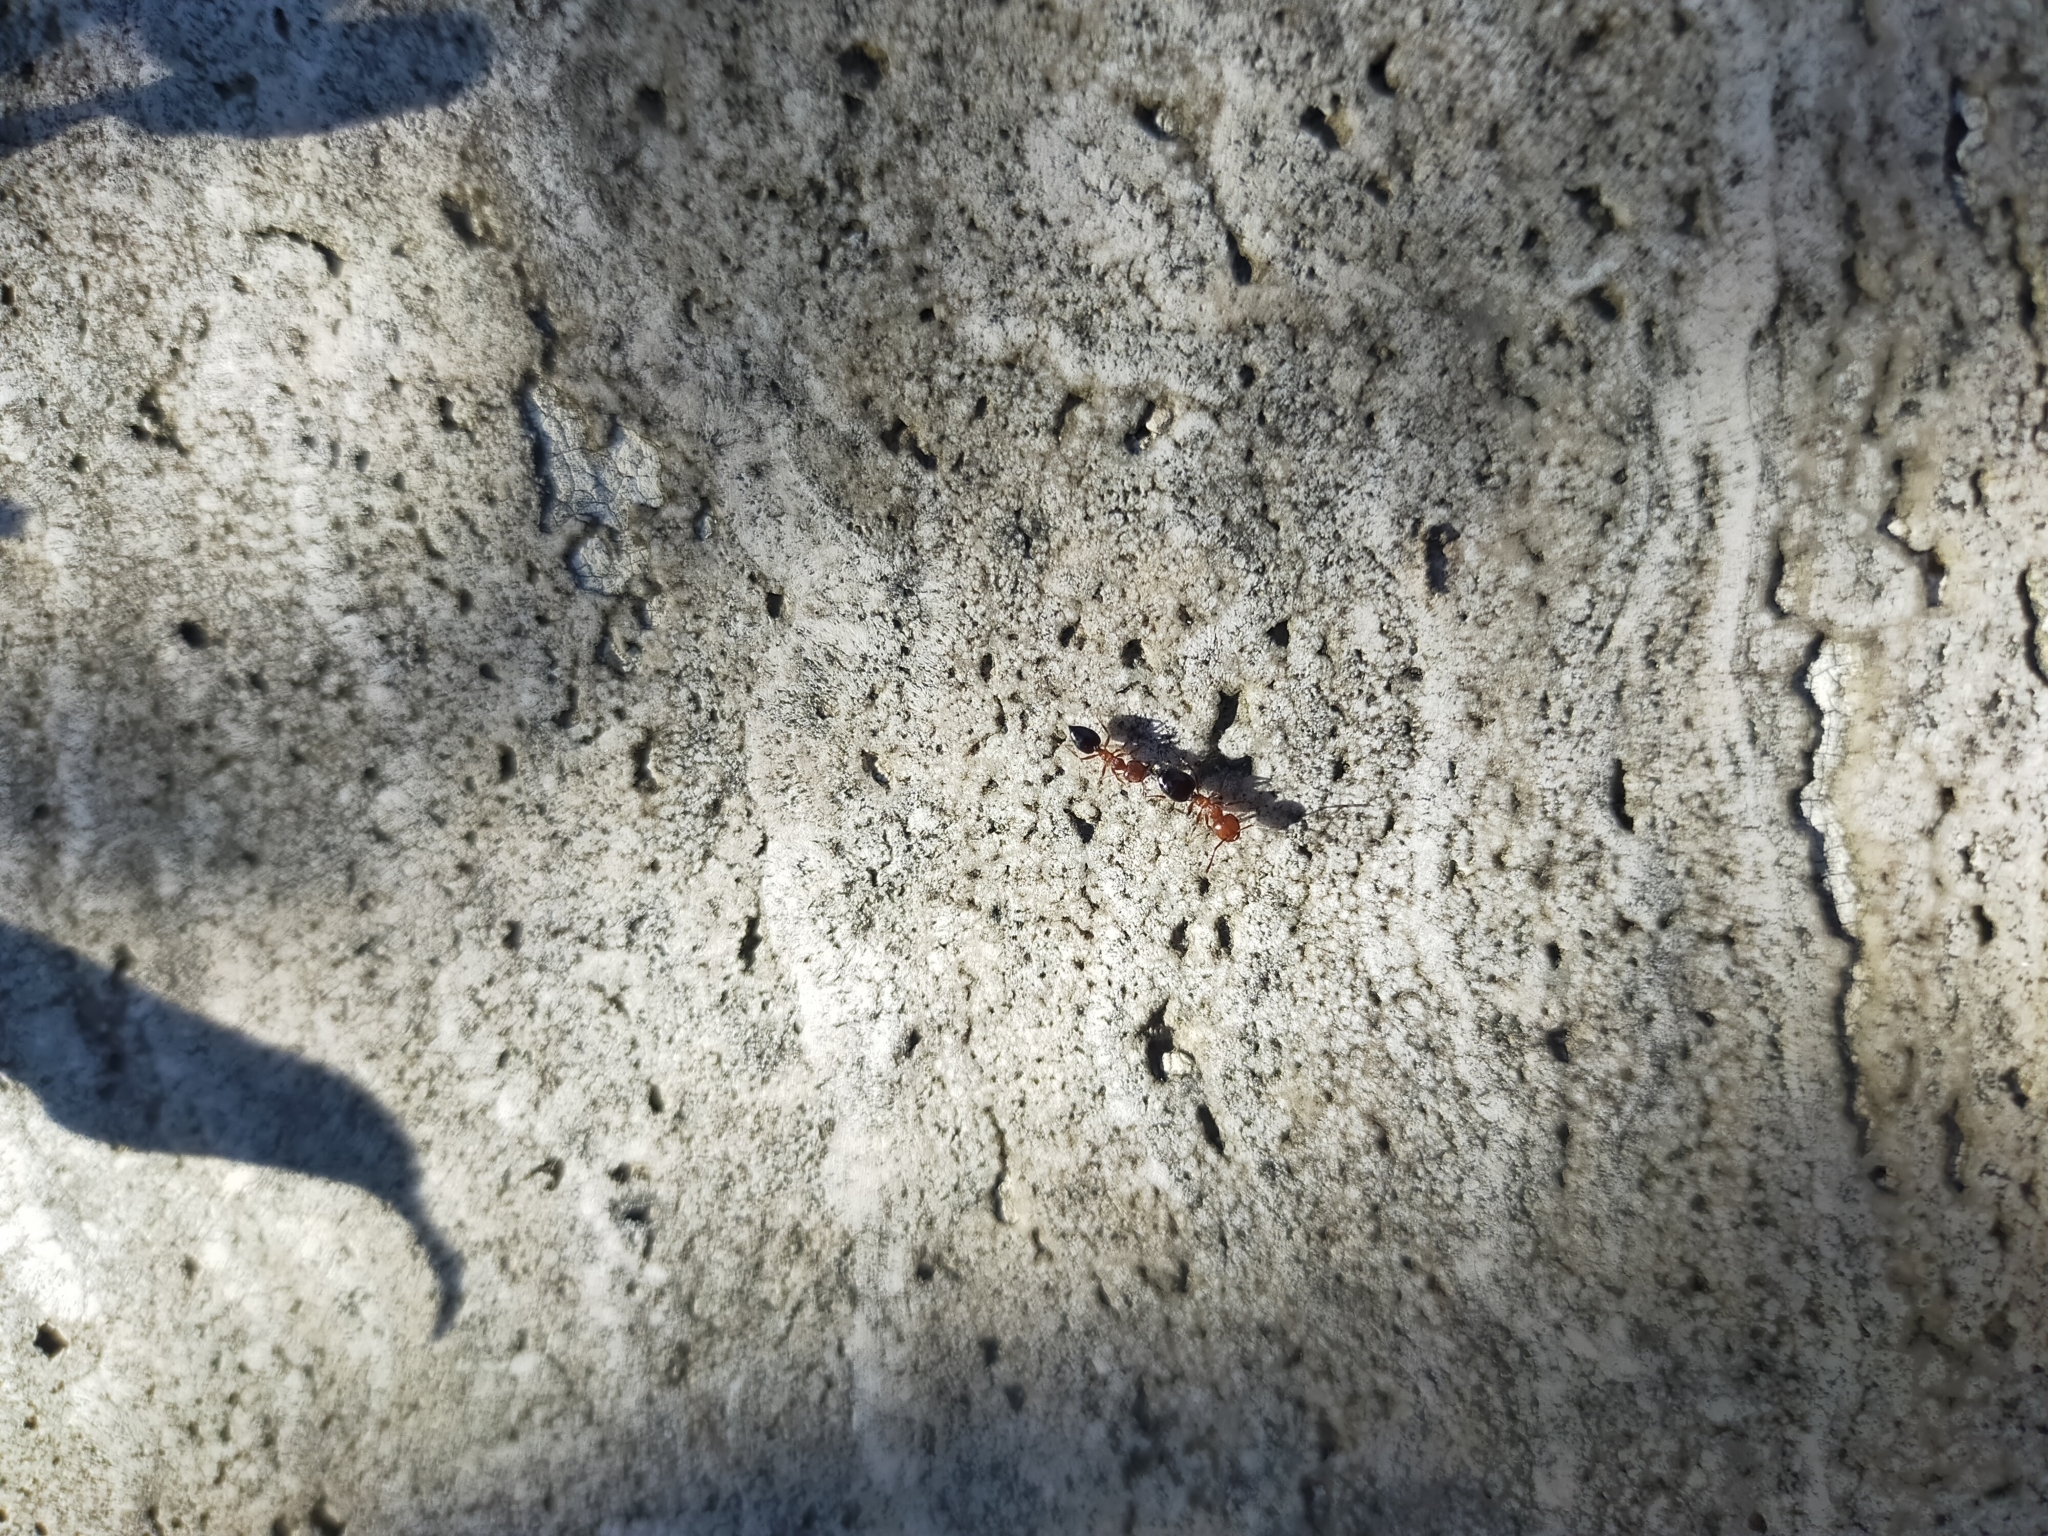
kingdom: Animalia
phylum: Arthropoda
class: Insecta
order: Hymenoptera
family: Formicidae
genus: Crematogaster
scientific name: Crematogaster schmidti
